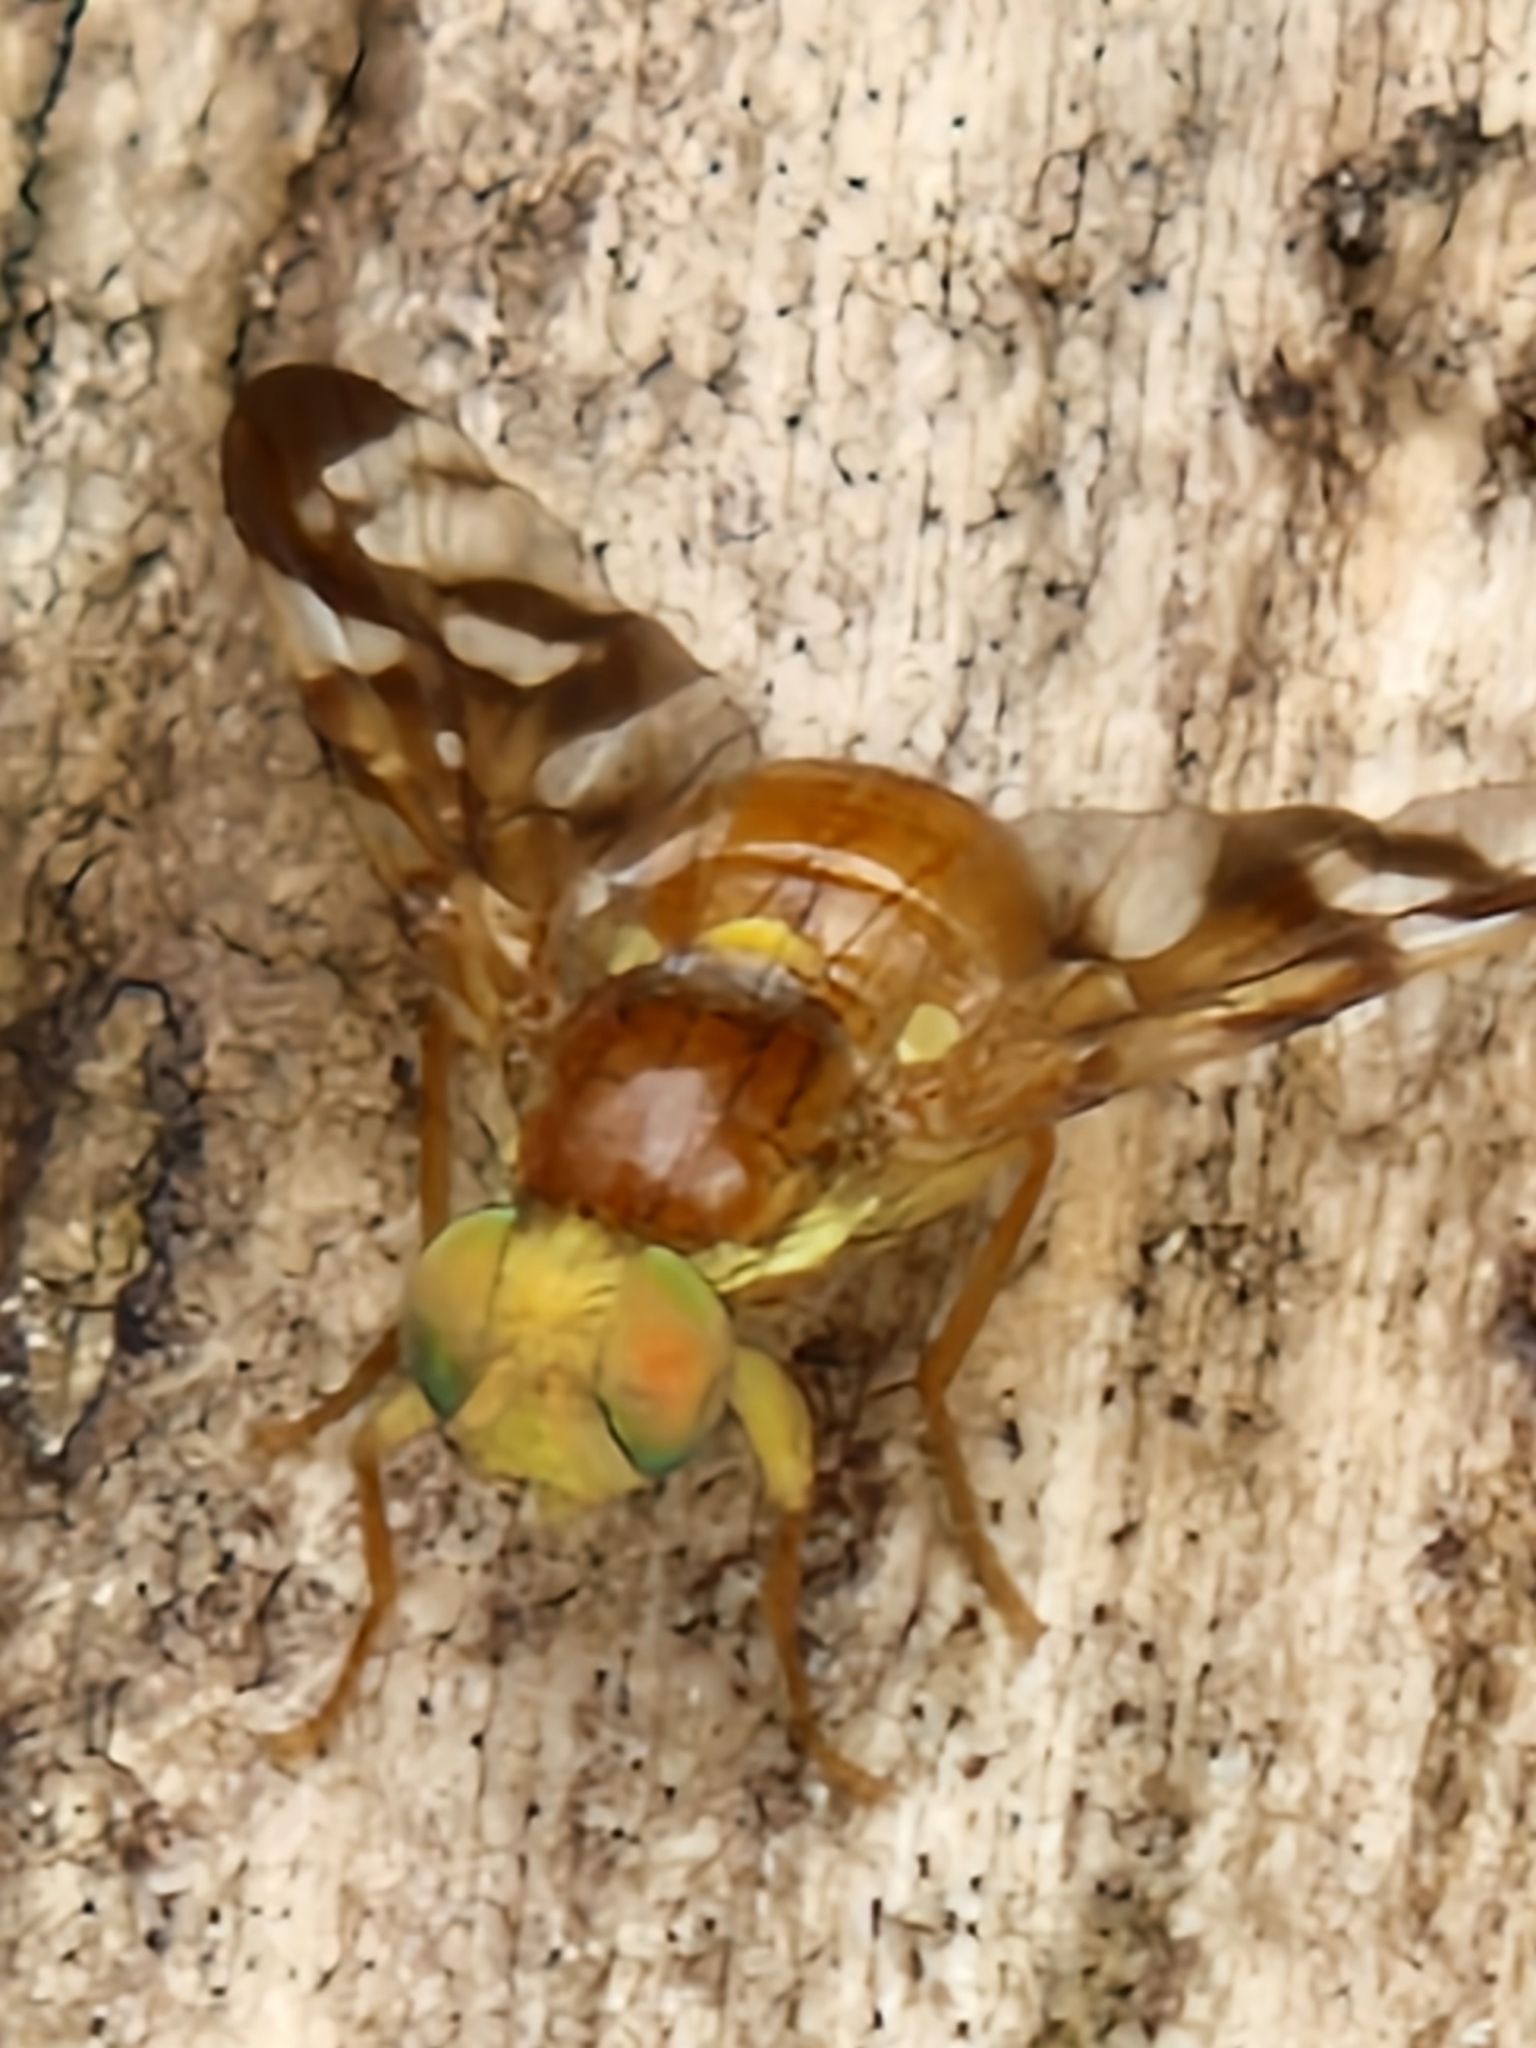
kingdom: Animalia
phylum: Arthropoda
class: Insecta
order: Diptera
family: Tephritidae
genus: Euleia
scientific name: Euleia heraclei
